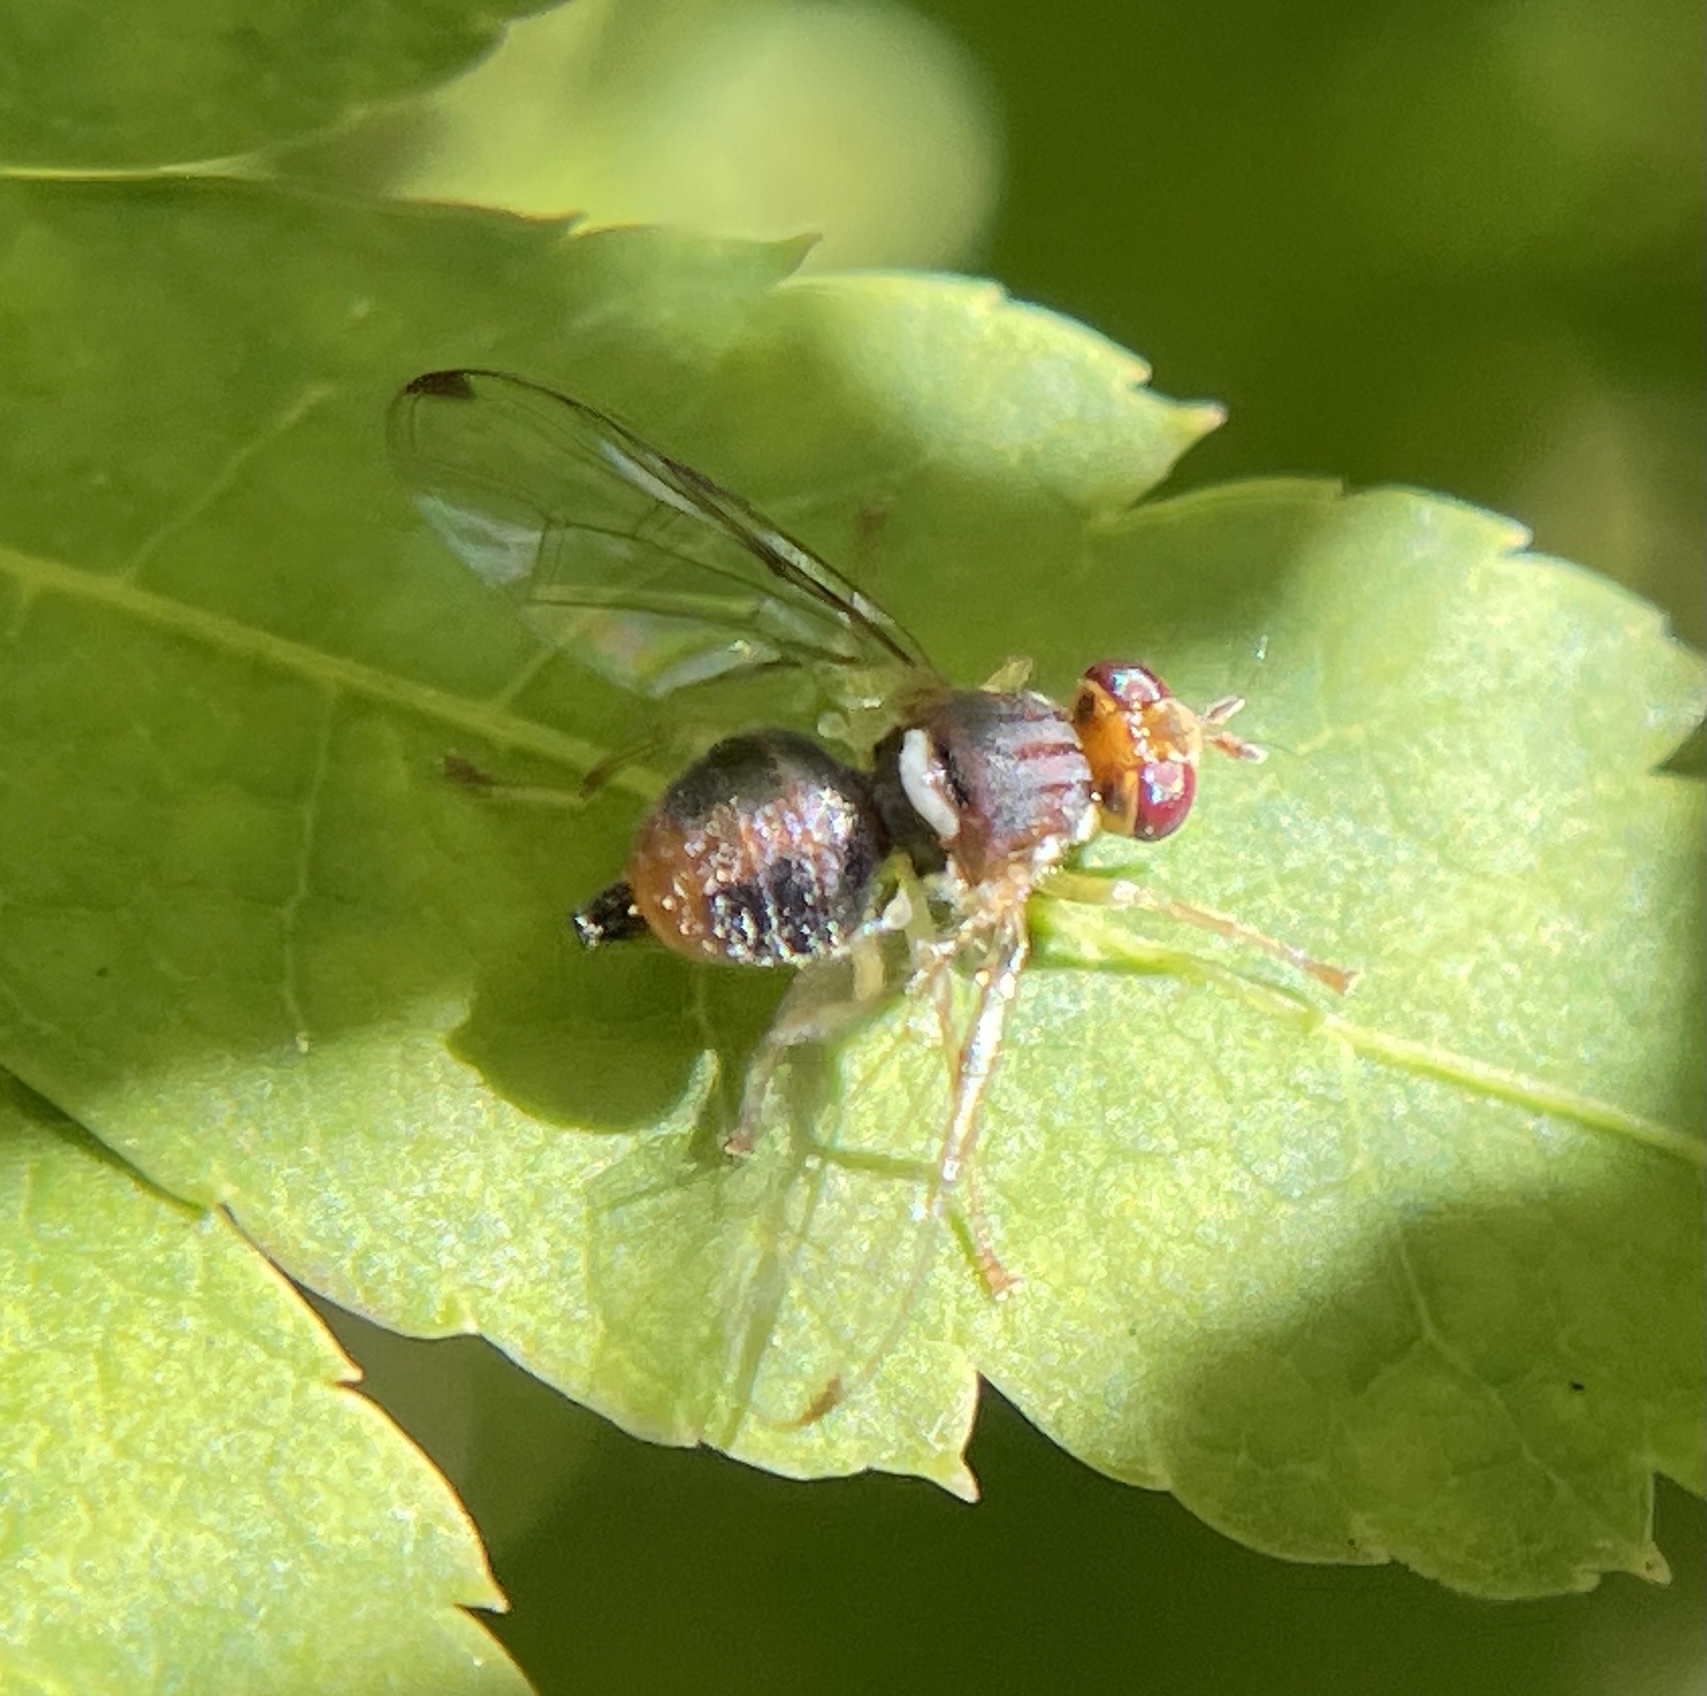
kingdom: Animalia
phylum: Arthropoda
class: Insecta
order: Diptera
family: Tephritidae
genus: Bactrocera
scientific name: Bactrocera oleae
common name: Olive fruit fly
